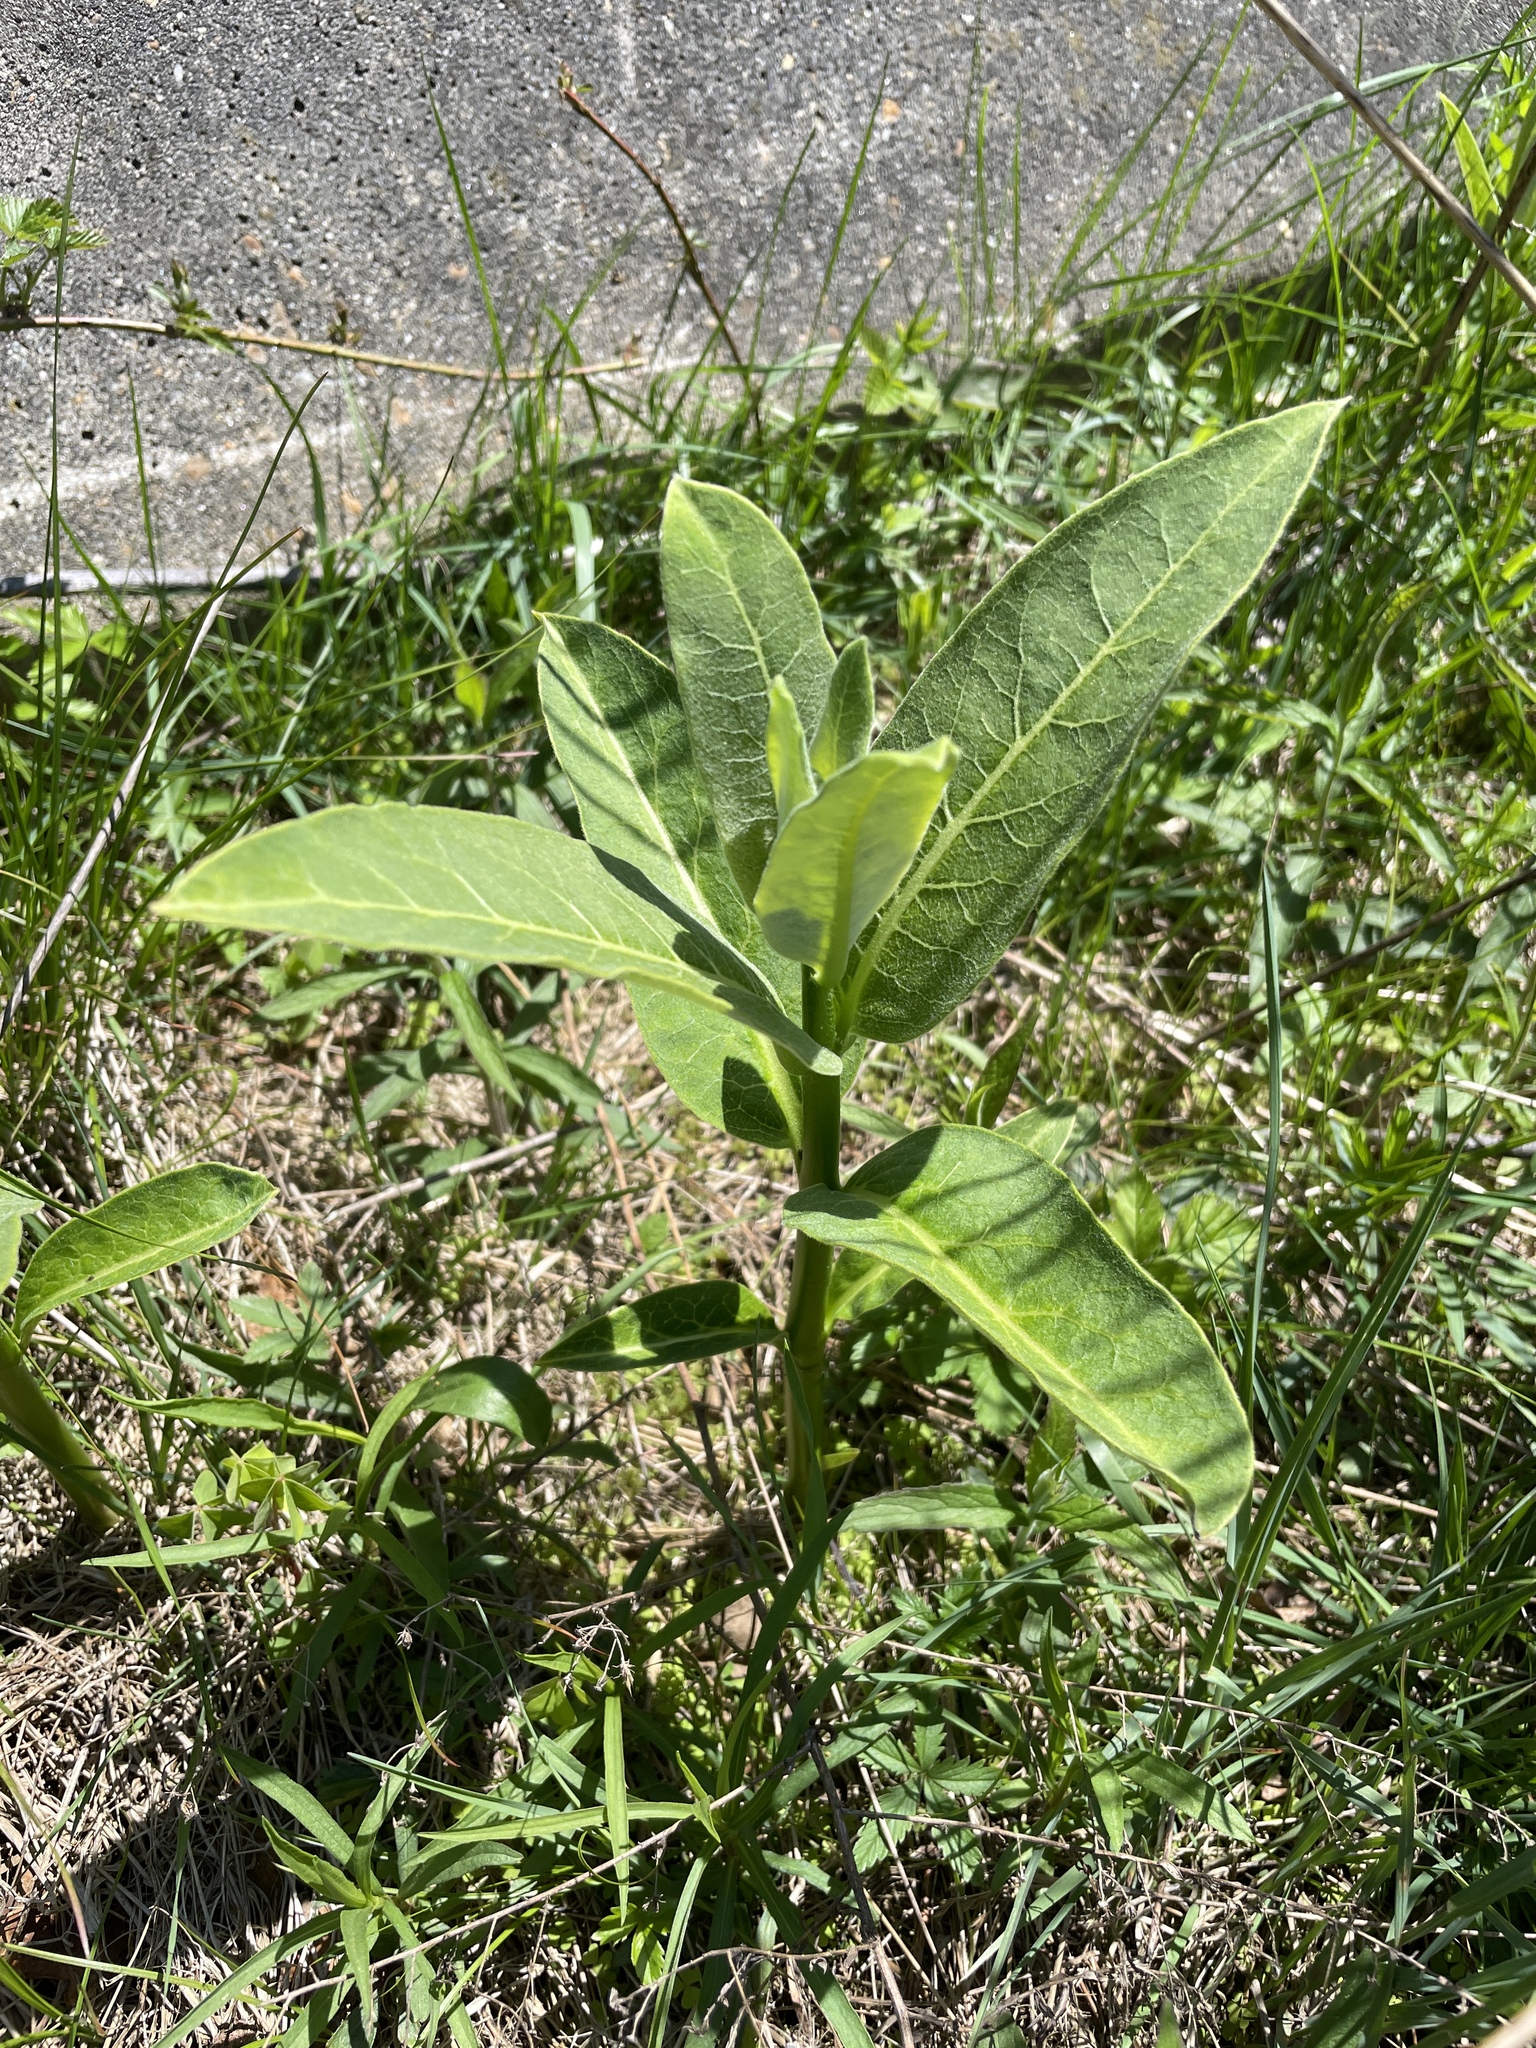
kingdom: Plantae
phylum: Tracheophyta
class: Magnoliopsida
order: Gentianales
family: Apocynaceae
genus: Asclepias
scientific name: Asclepias syriaca
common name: Common milkweed
